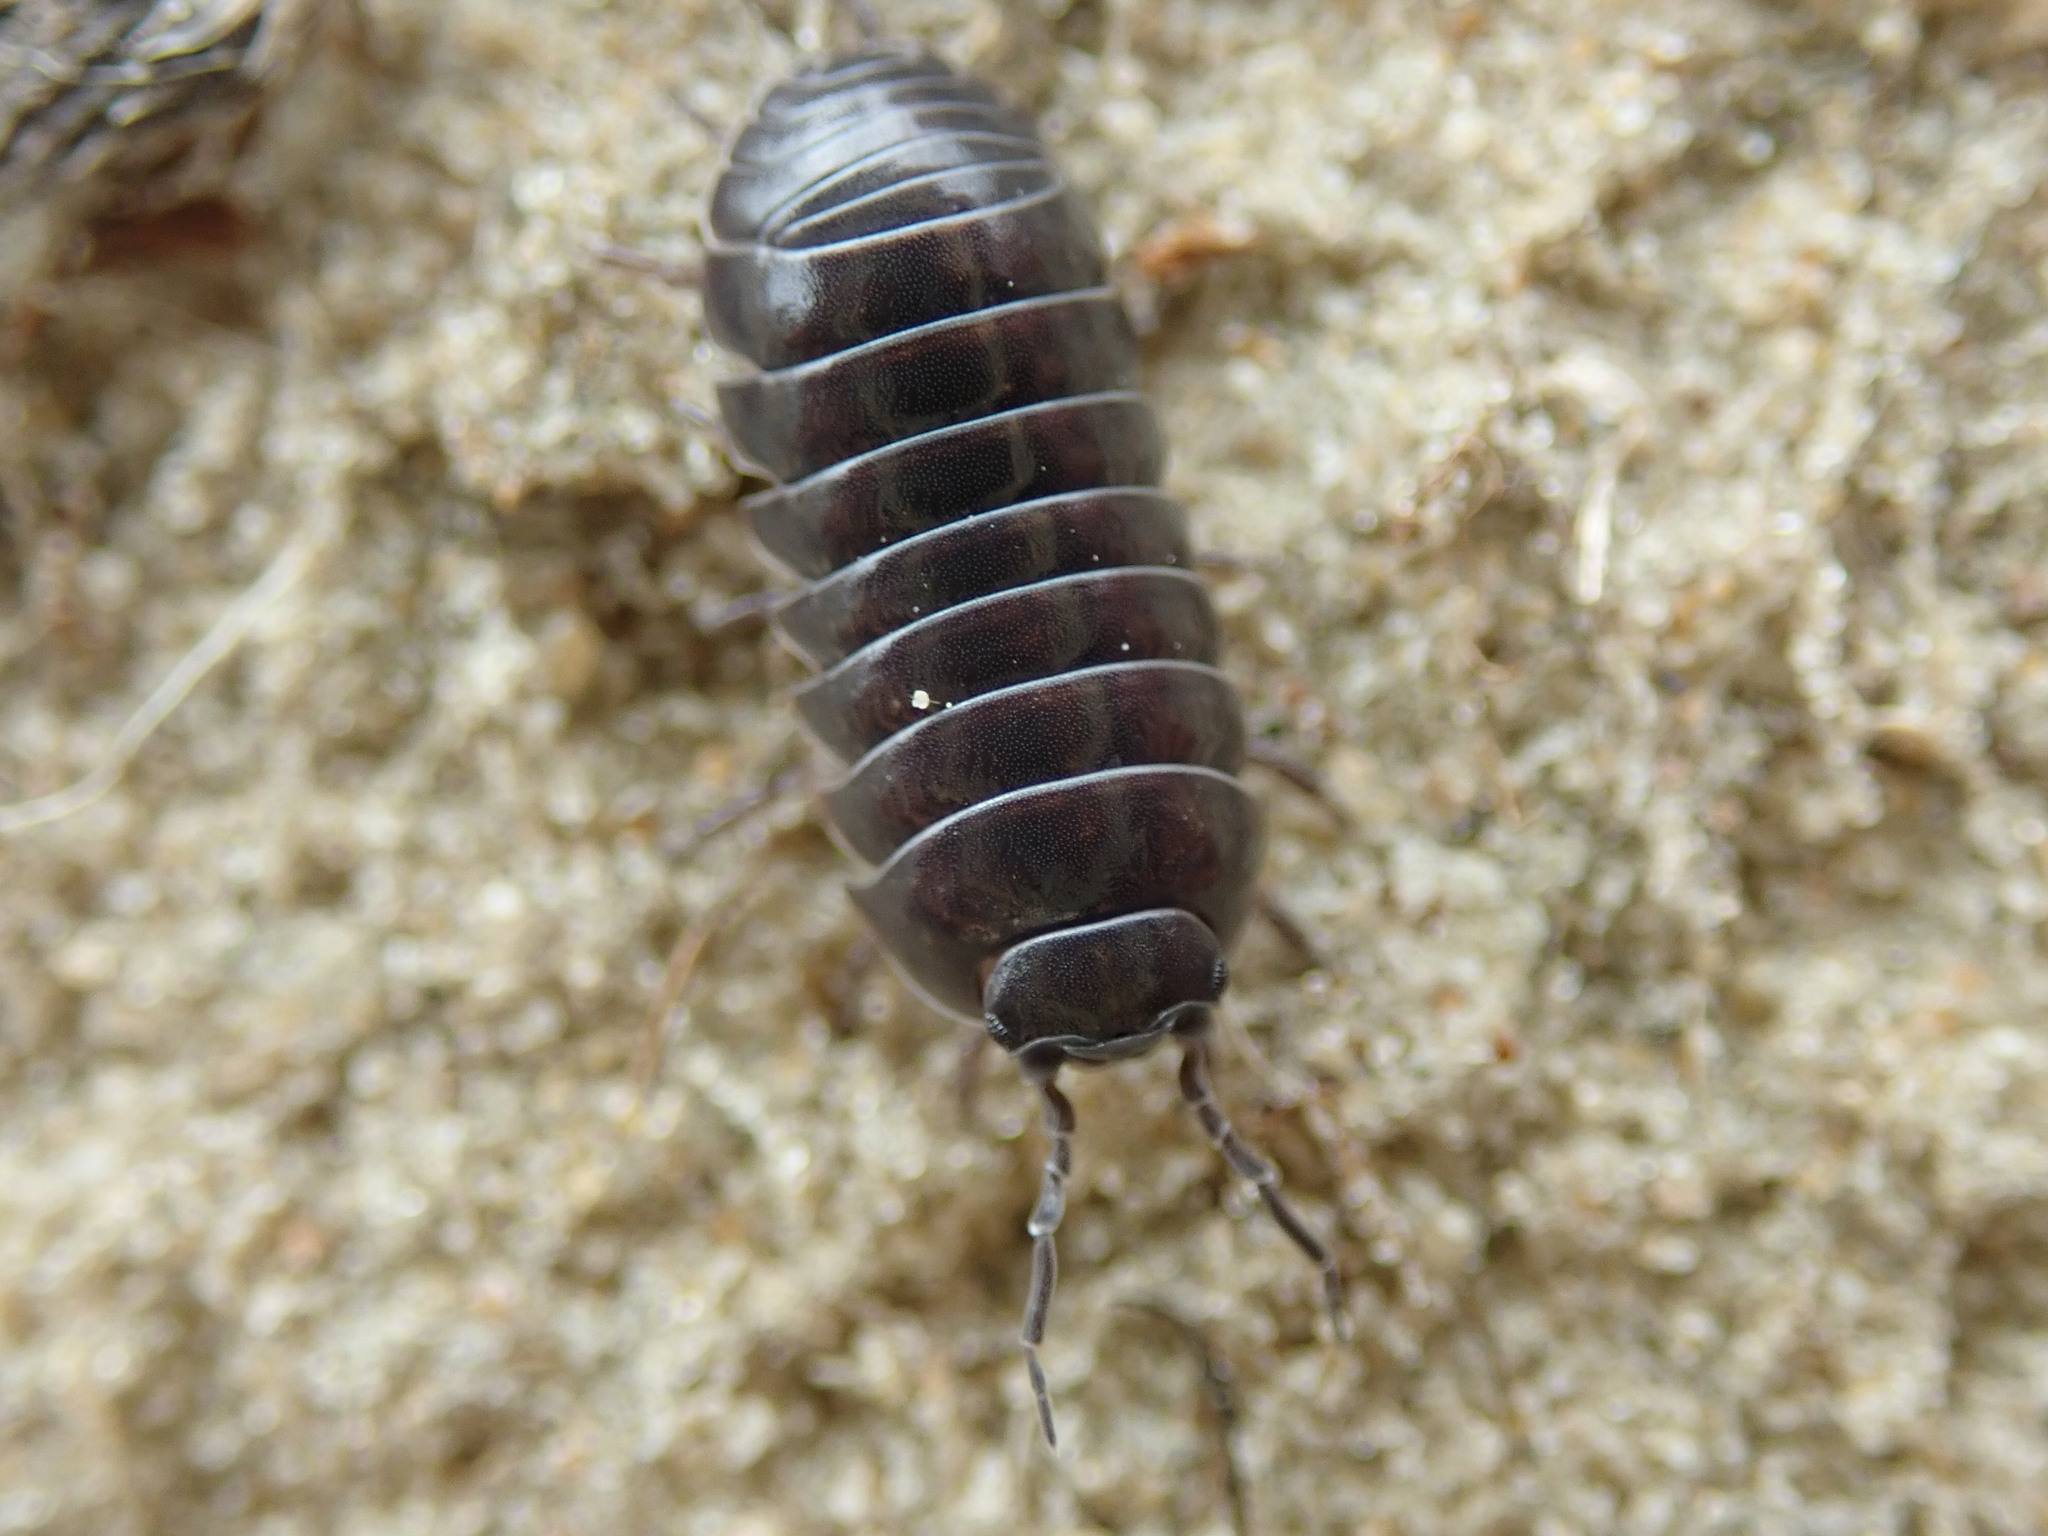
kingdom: Animalia
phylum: Arthropoda
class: Malacostraca
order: Isopoda
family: Armadillidiidae
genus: Armadillidium
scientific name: Armadillidium vulgare
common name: Common pill woodlouse
